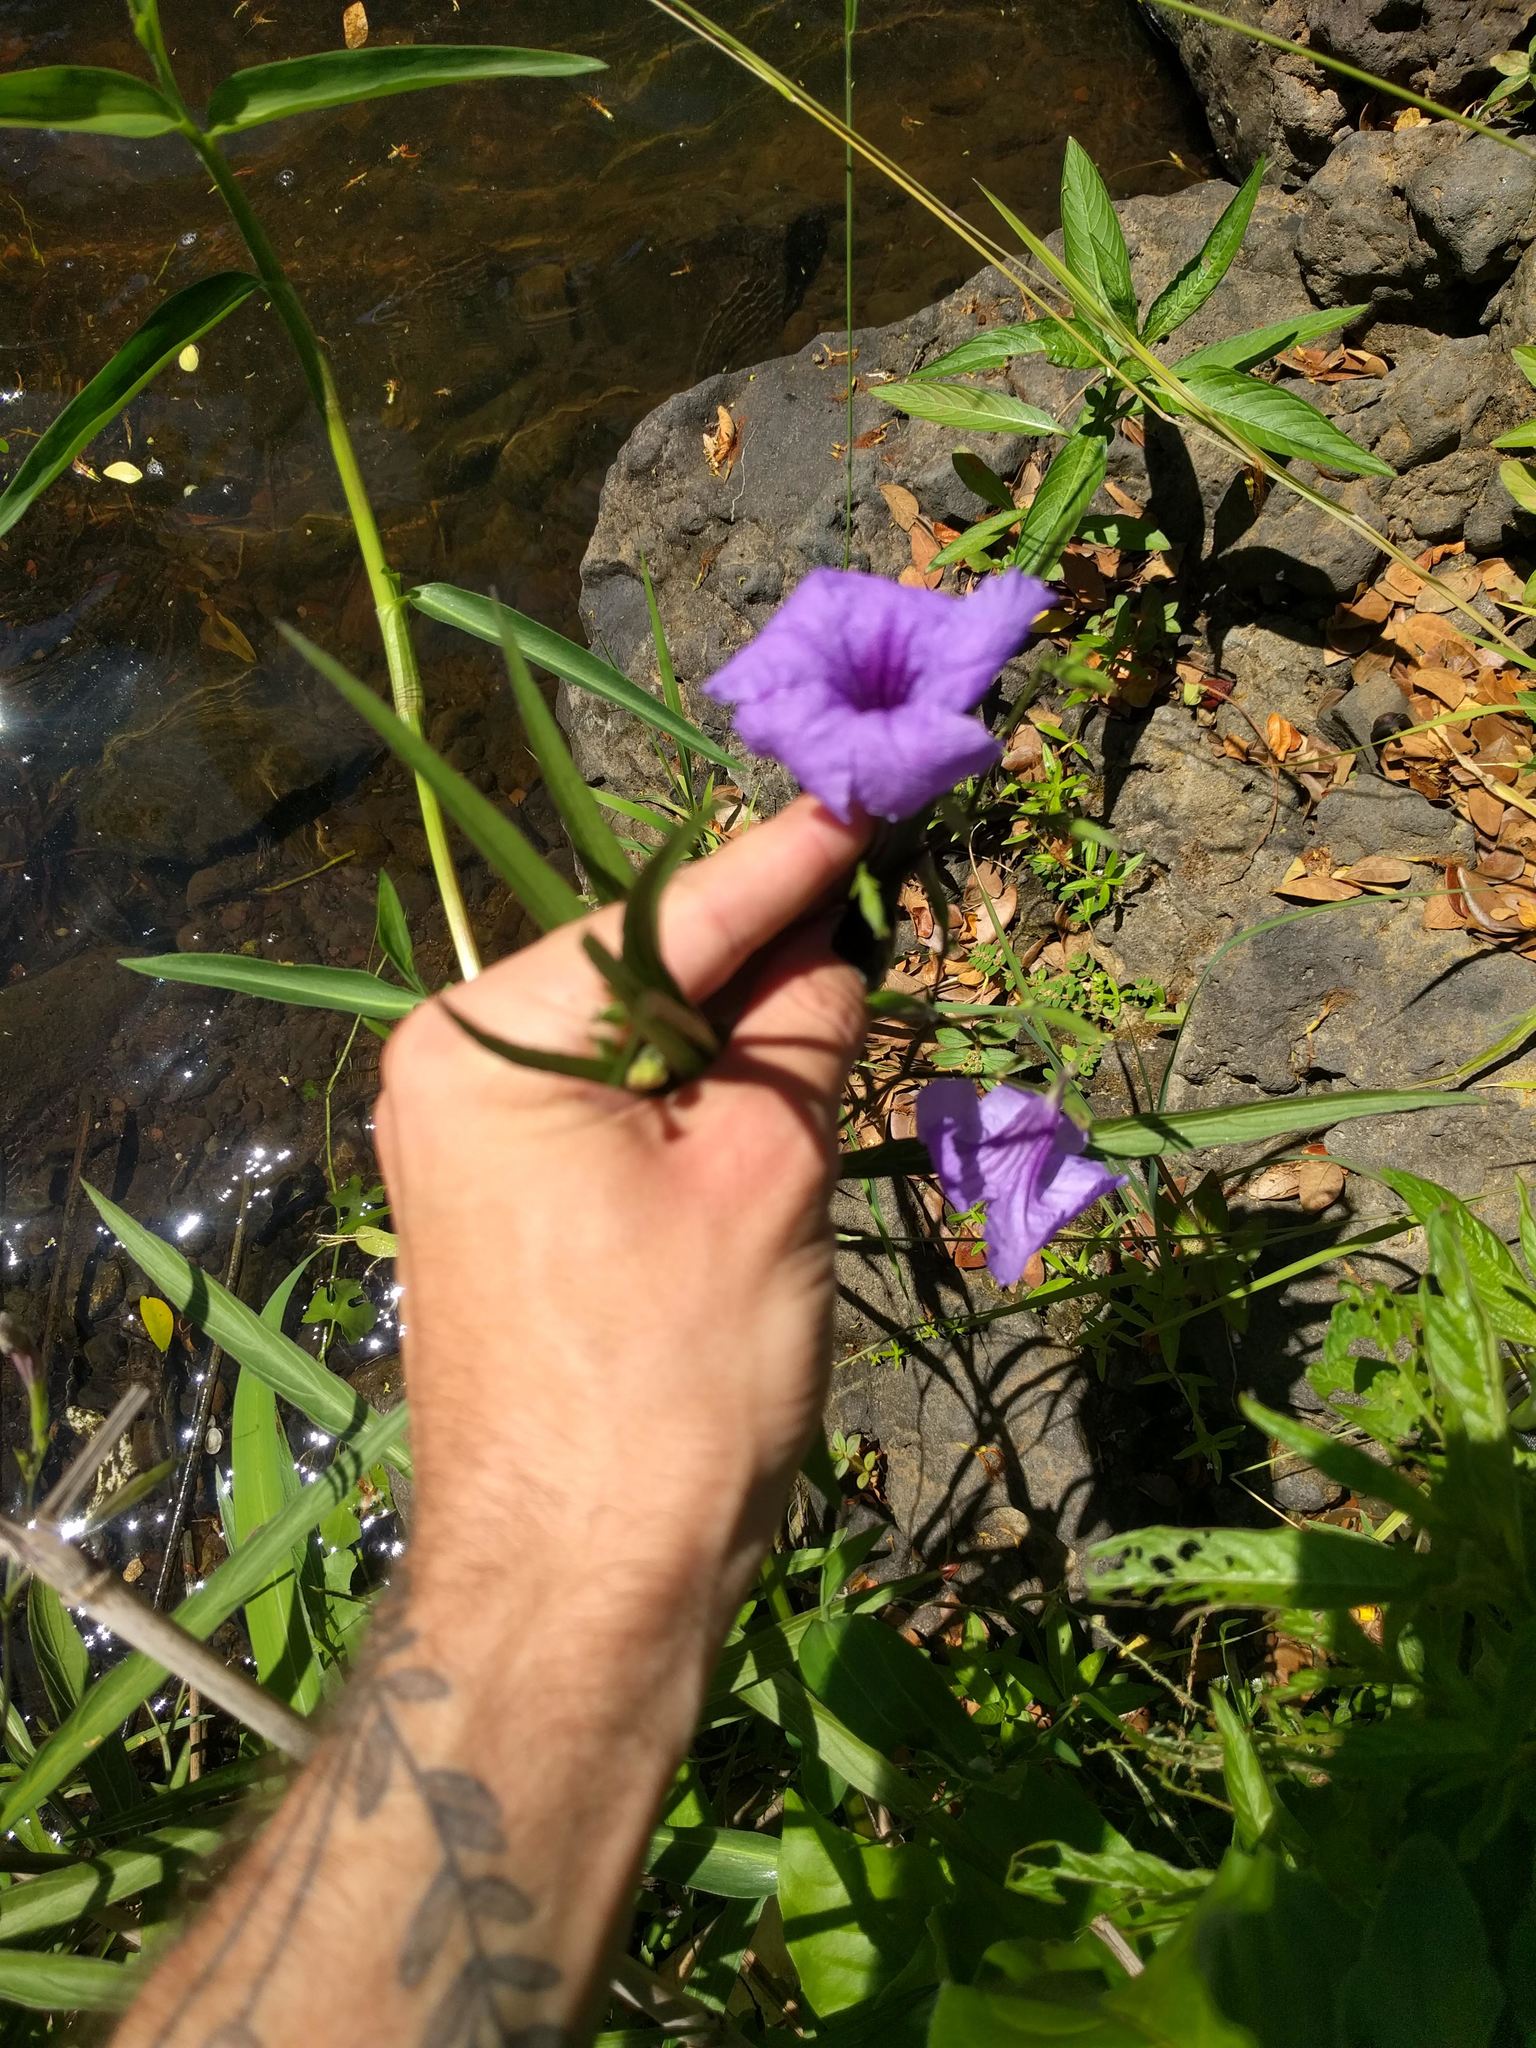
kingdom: Plantae
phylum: Tracheophyta
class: Magnoliopsida
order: Lamiales
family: Acanthaceae
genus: Ruellia
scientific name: Ruellia simplex
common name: Softseed wild petunia
